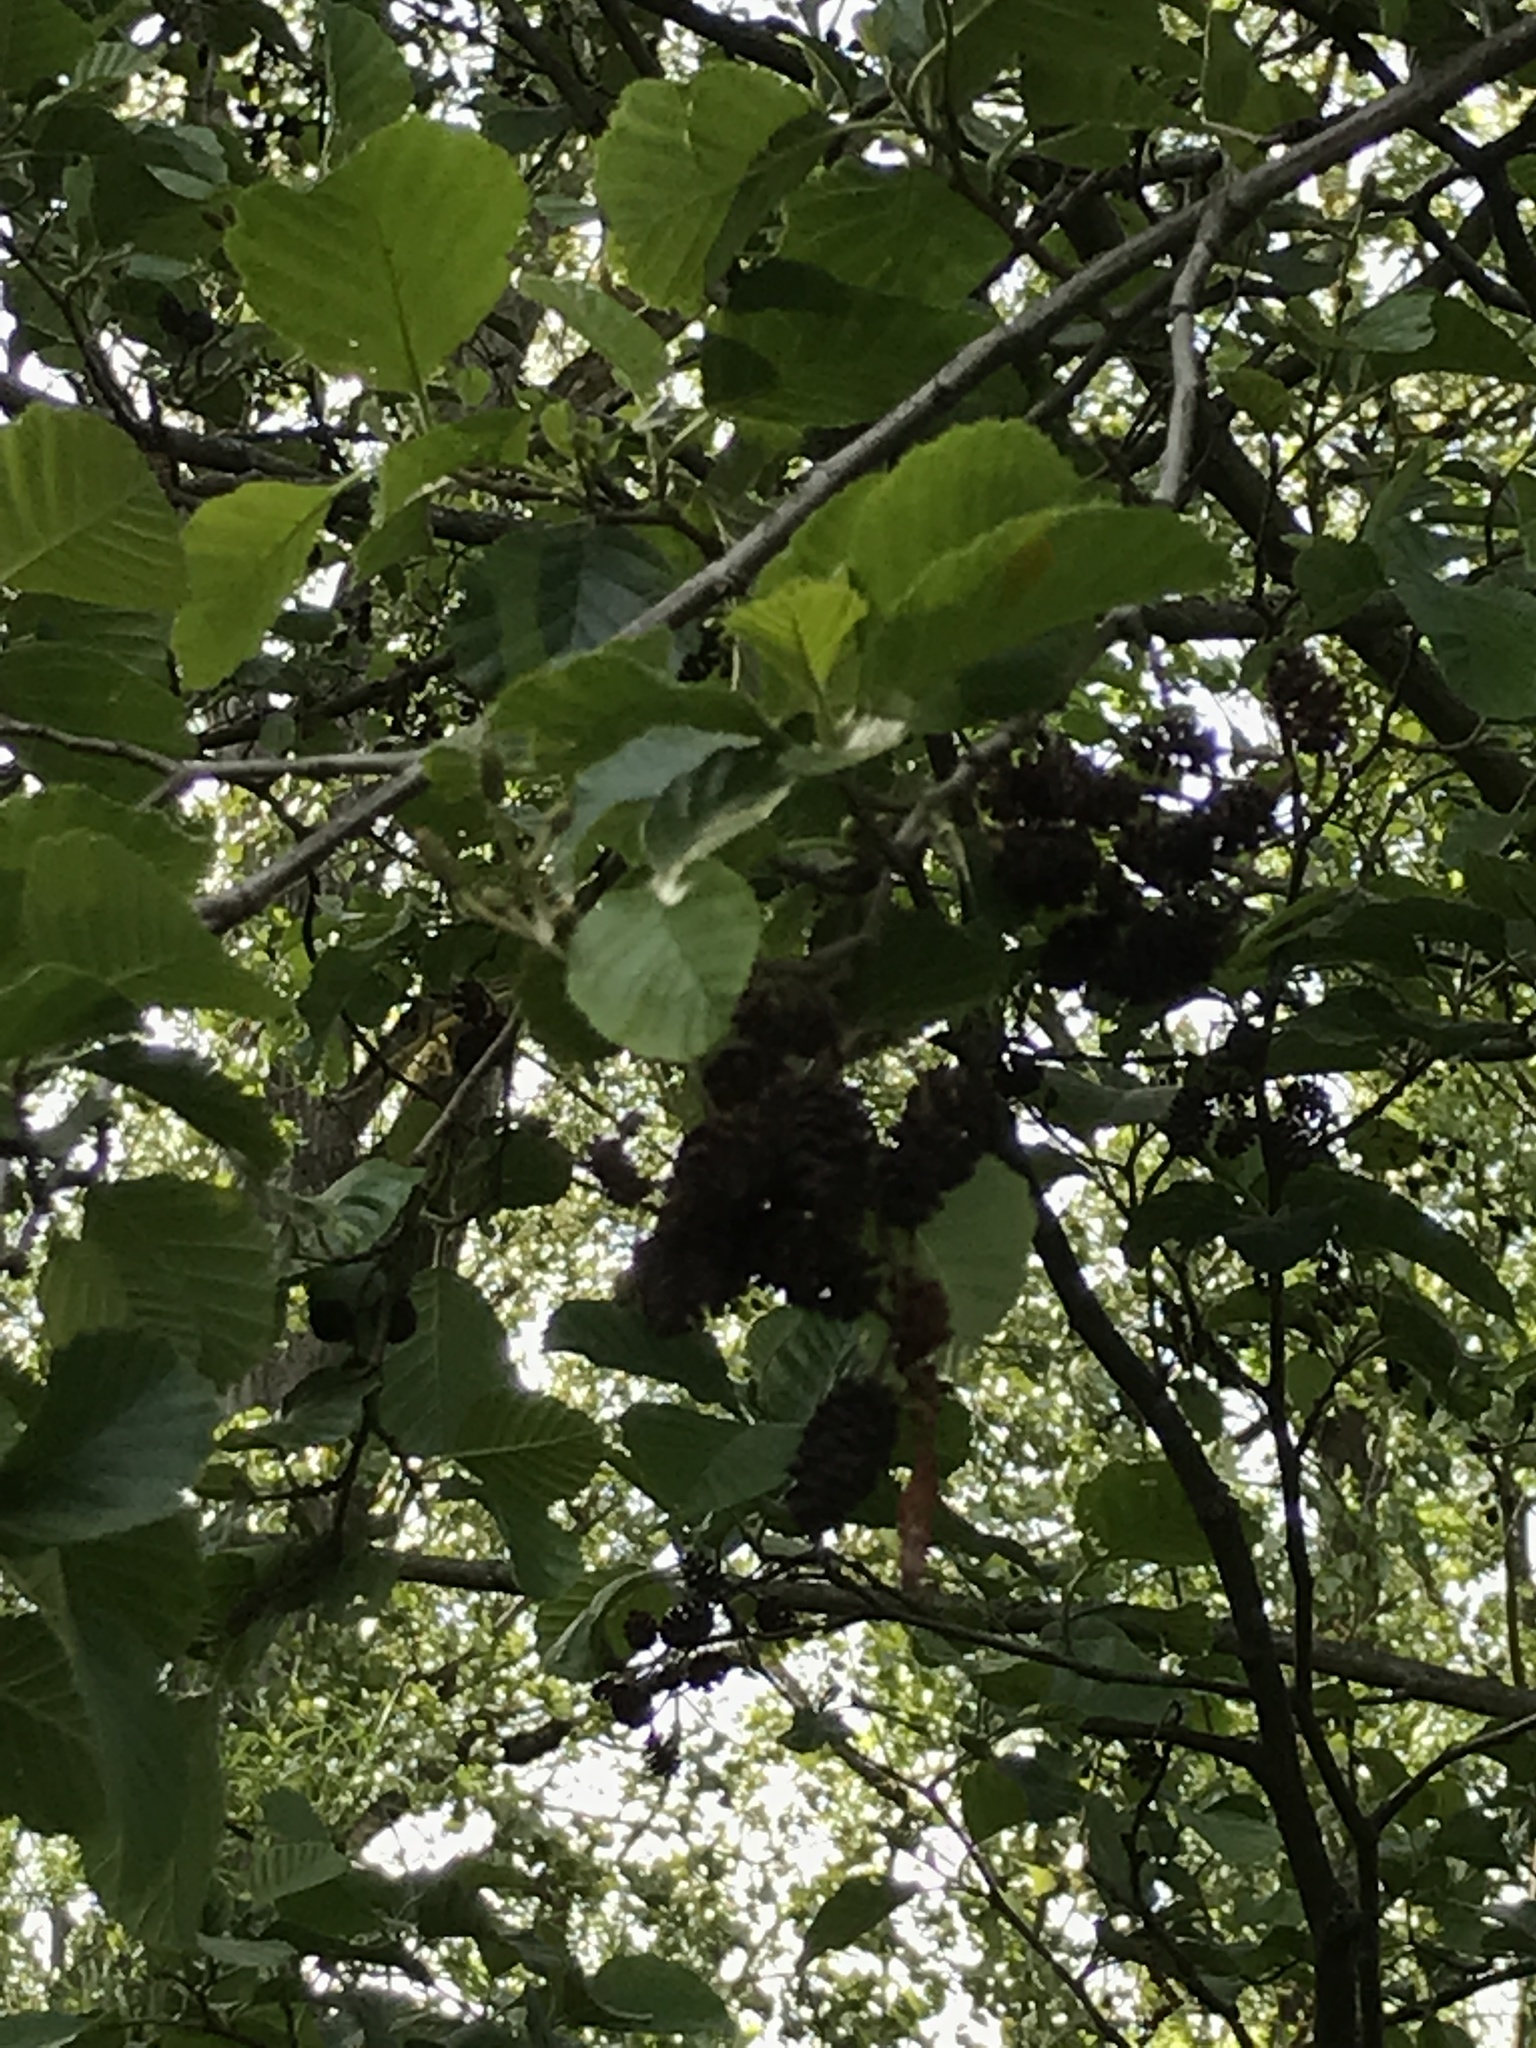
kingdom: Plantae
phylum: Tracheophyta
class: Magnoliopsida
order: Fagales
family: Betulaceae
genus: Alnus
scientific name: Alnus glutinosa
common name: Black alder
